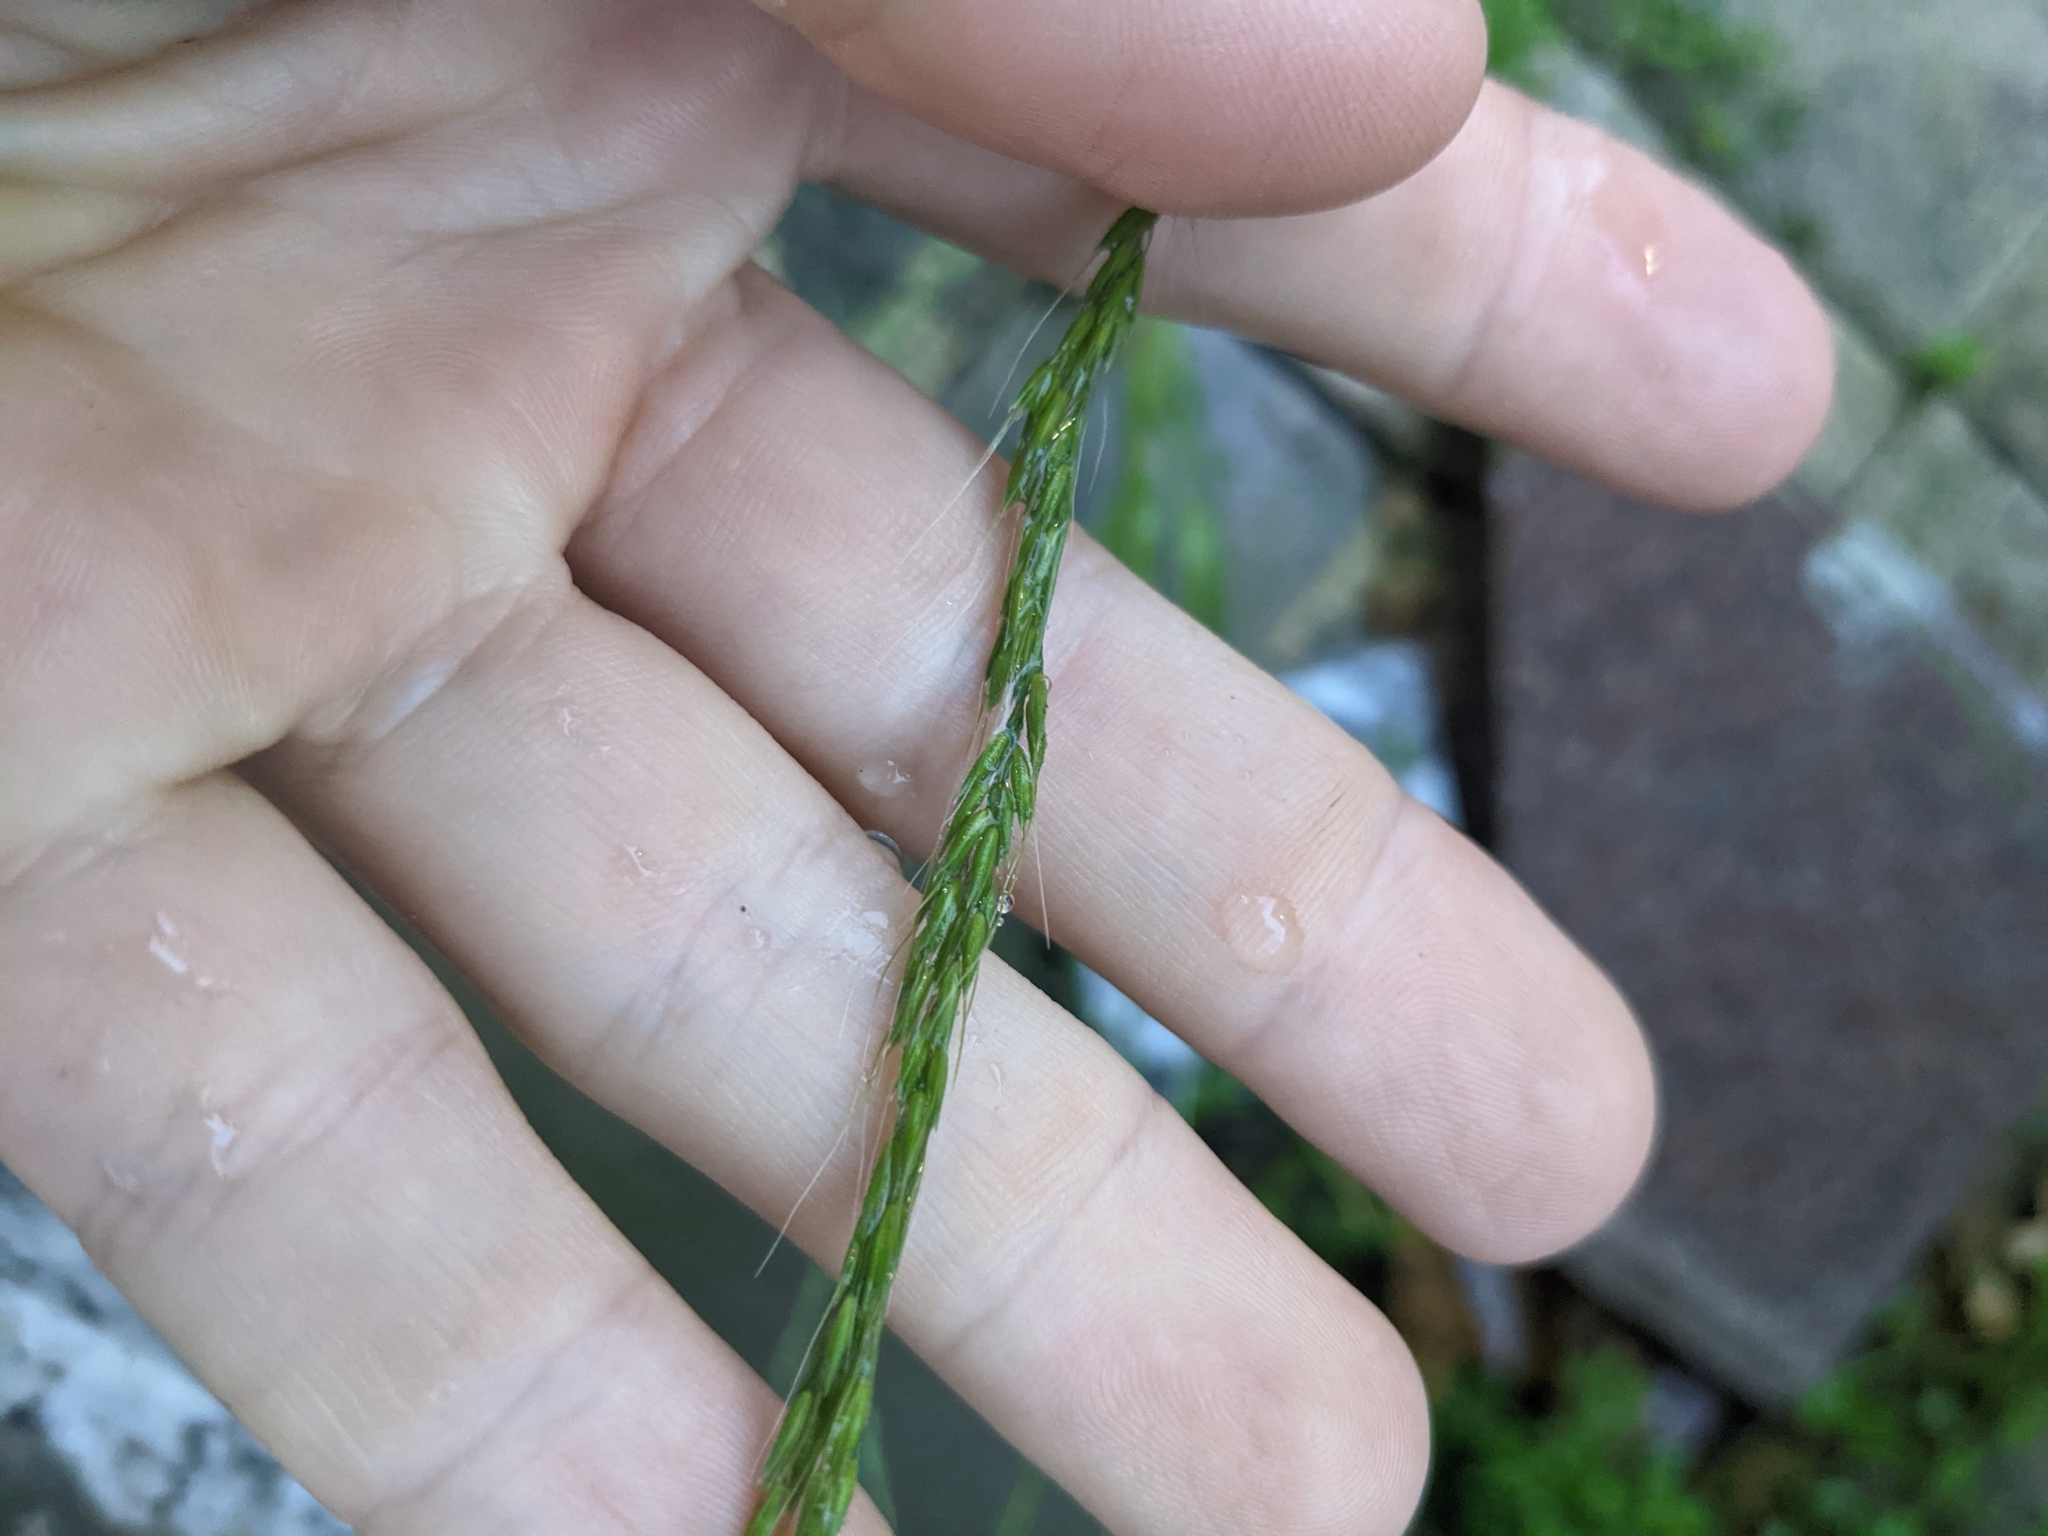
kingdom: Plantae
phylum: Tracheophyta
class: Liliopsida
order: Poales
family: Poaceae
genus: Limnodea
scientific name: Limnodea arkansana
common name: Ozark-grass
